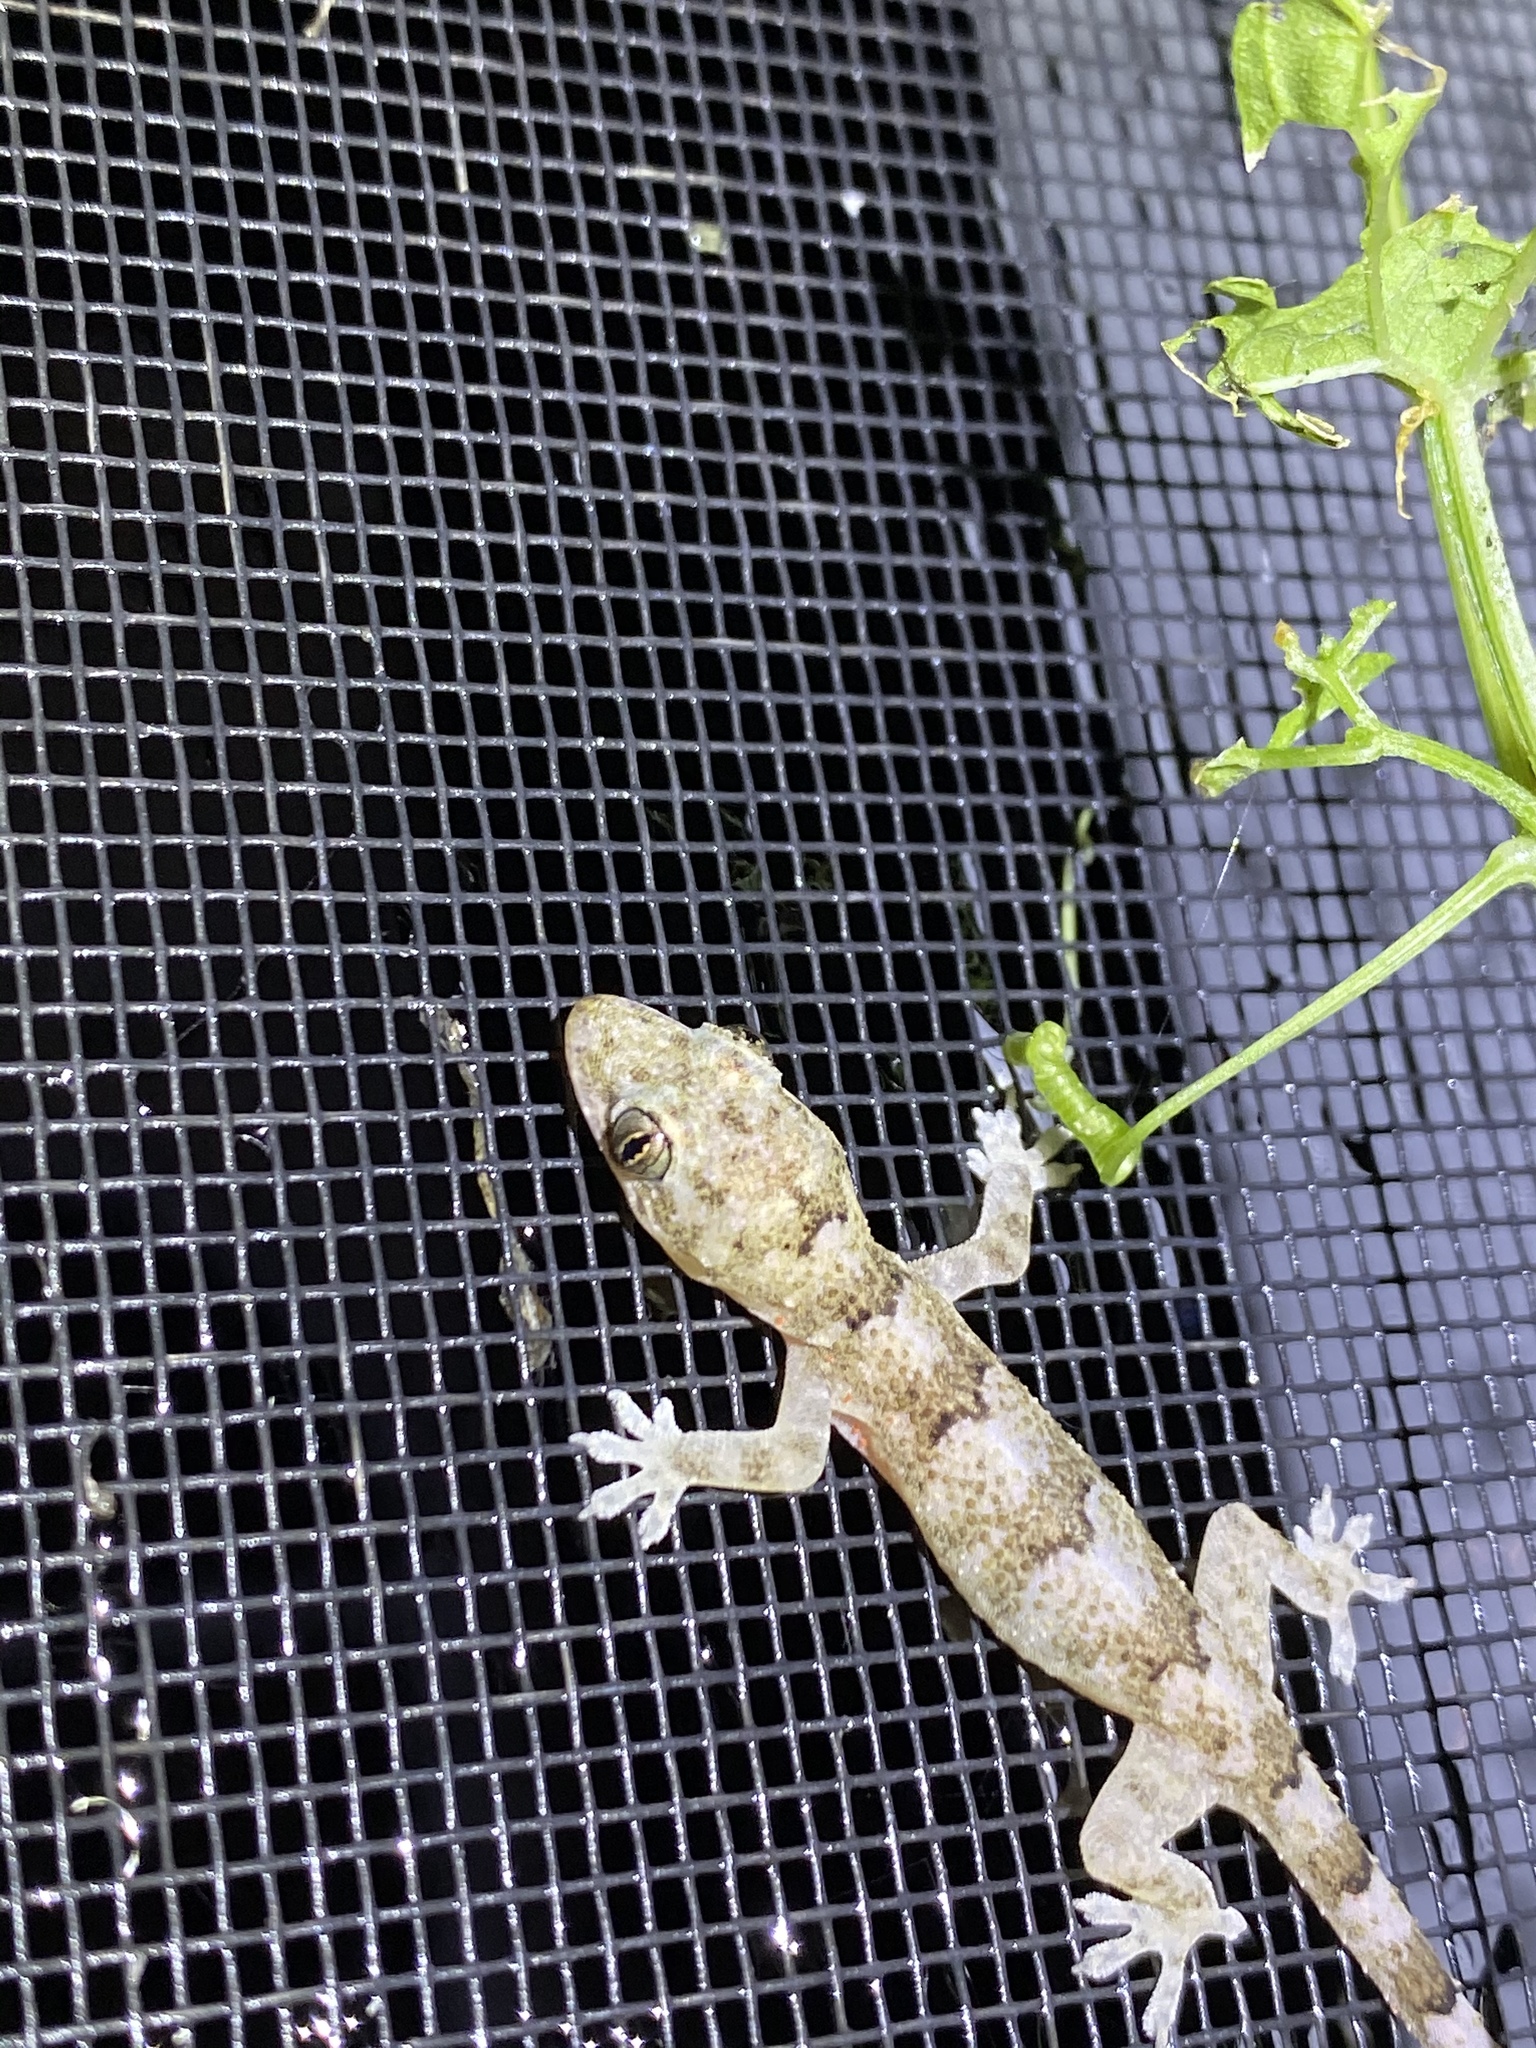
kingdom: Animalia
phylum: Chordata
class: Squamata
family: Gekkonidae
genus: Hemidactylus
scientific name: Hemidactylus mabouia
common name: House gecko
